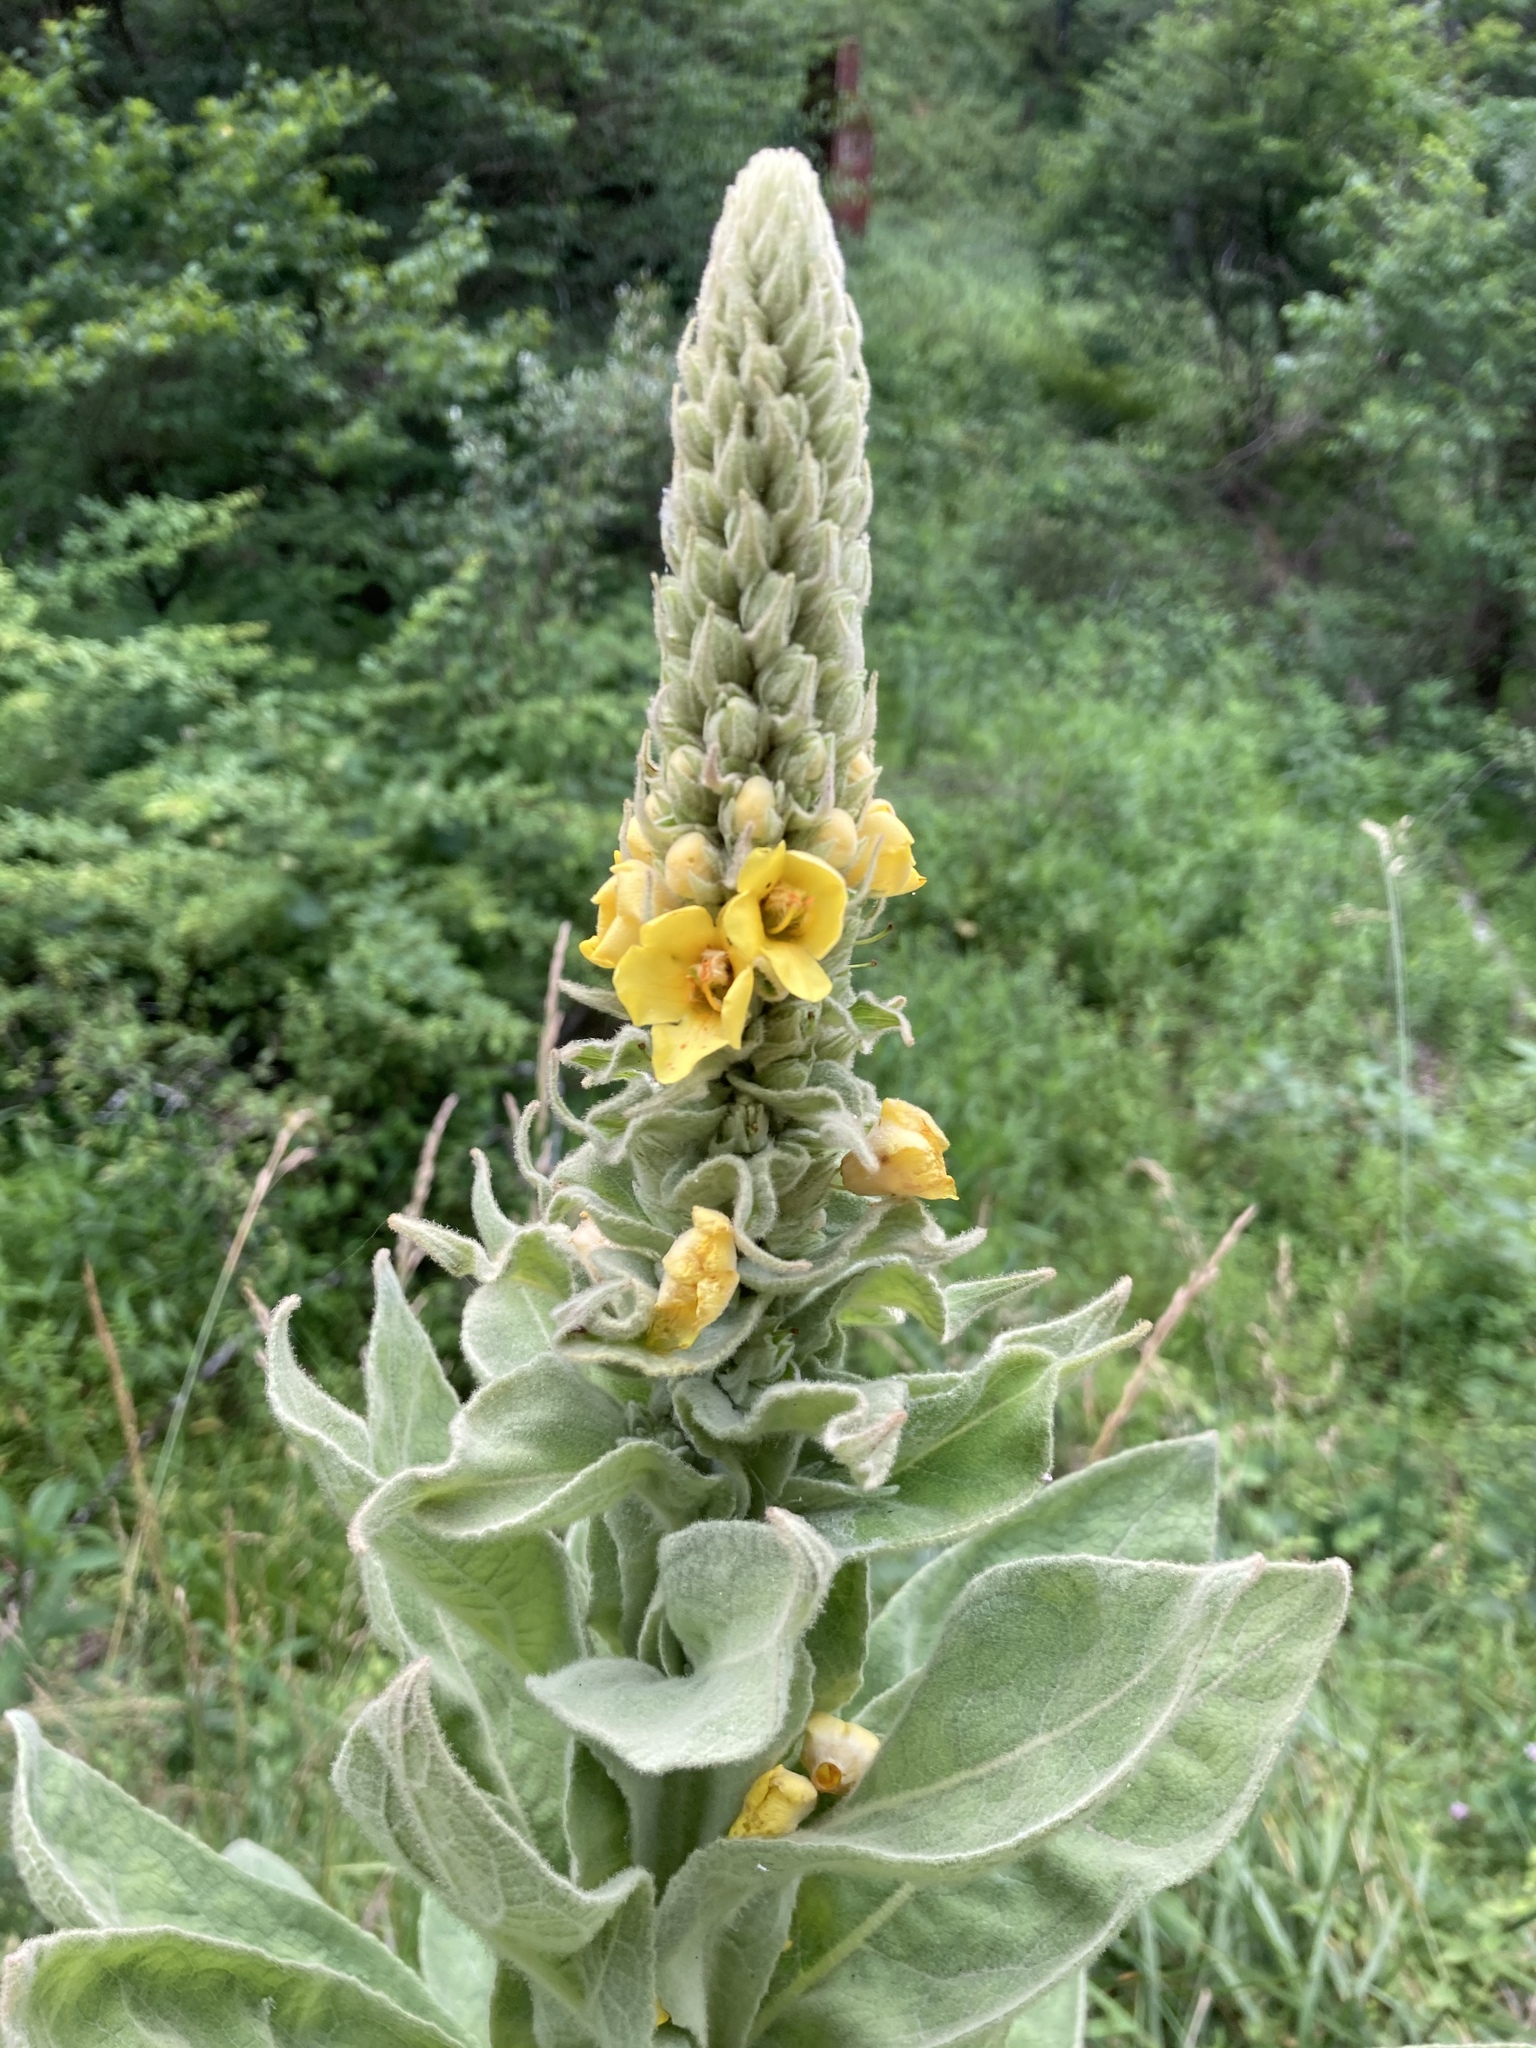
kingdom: Plantae
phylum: Tracheophyta
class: Magnoliopsida
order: Lamiales
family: Scrophulariaceae
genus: Verbascum
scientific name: Verbascum thapsus
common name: Common mullein
